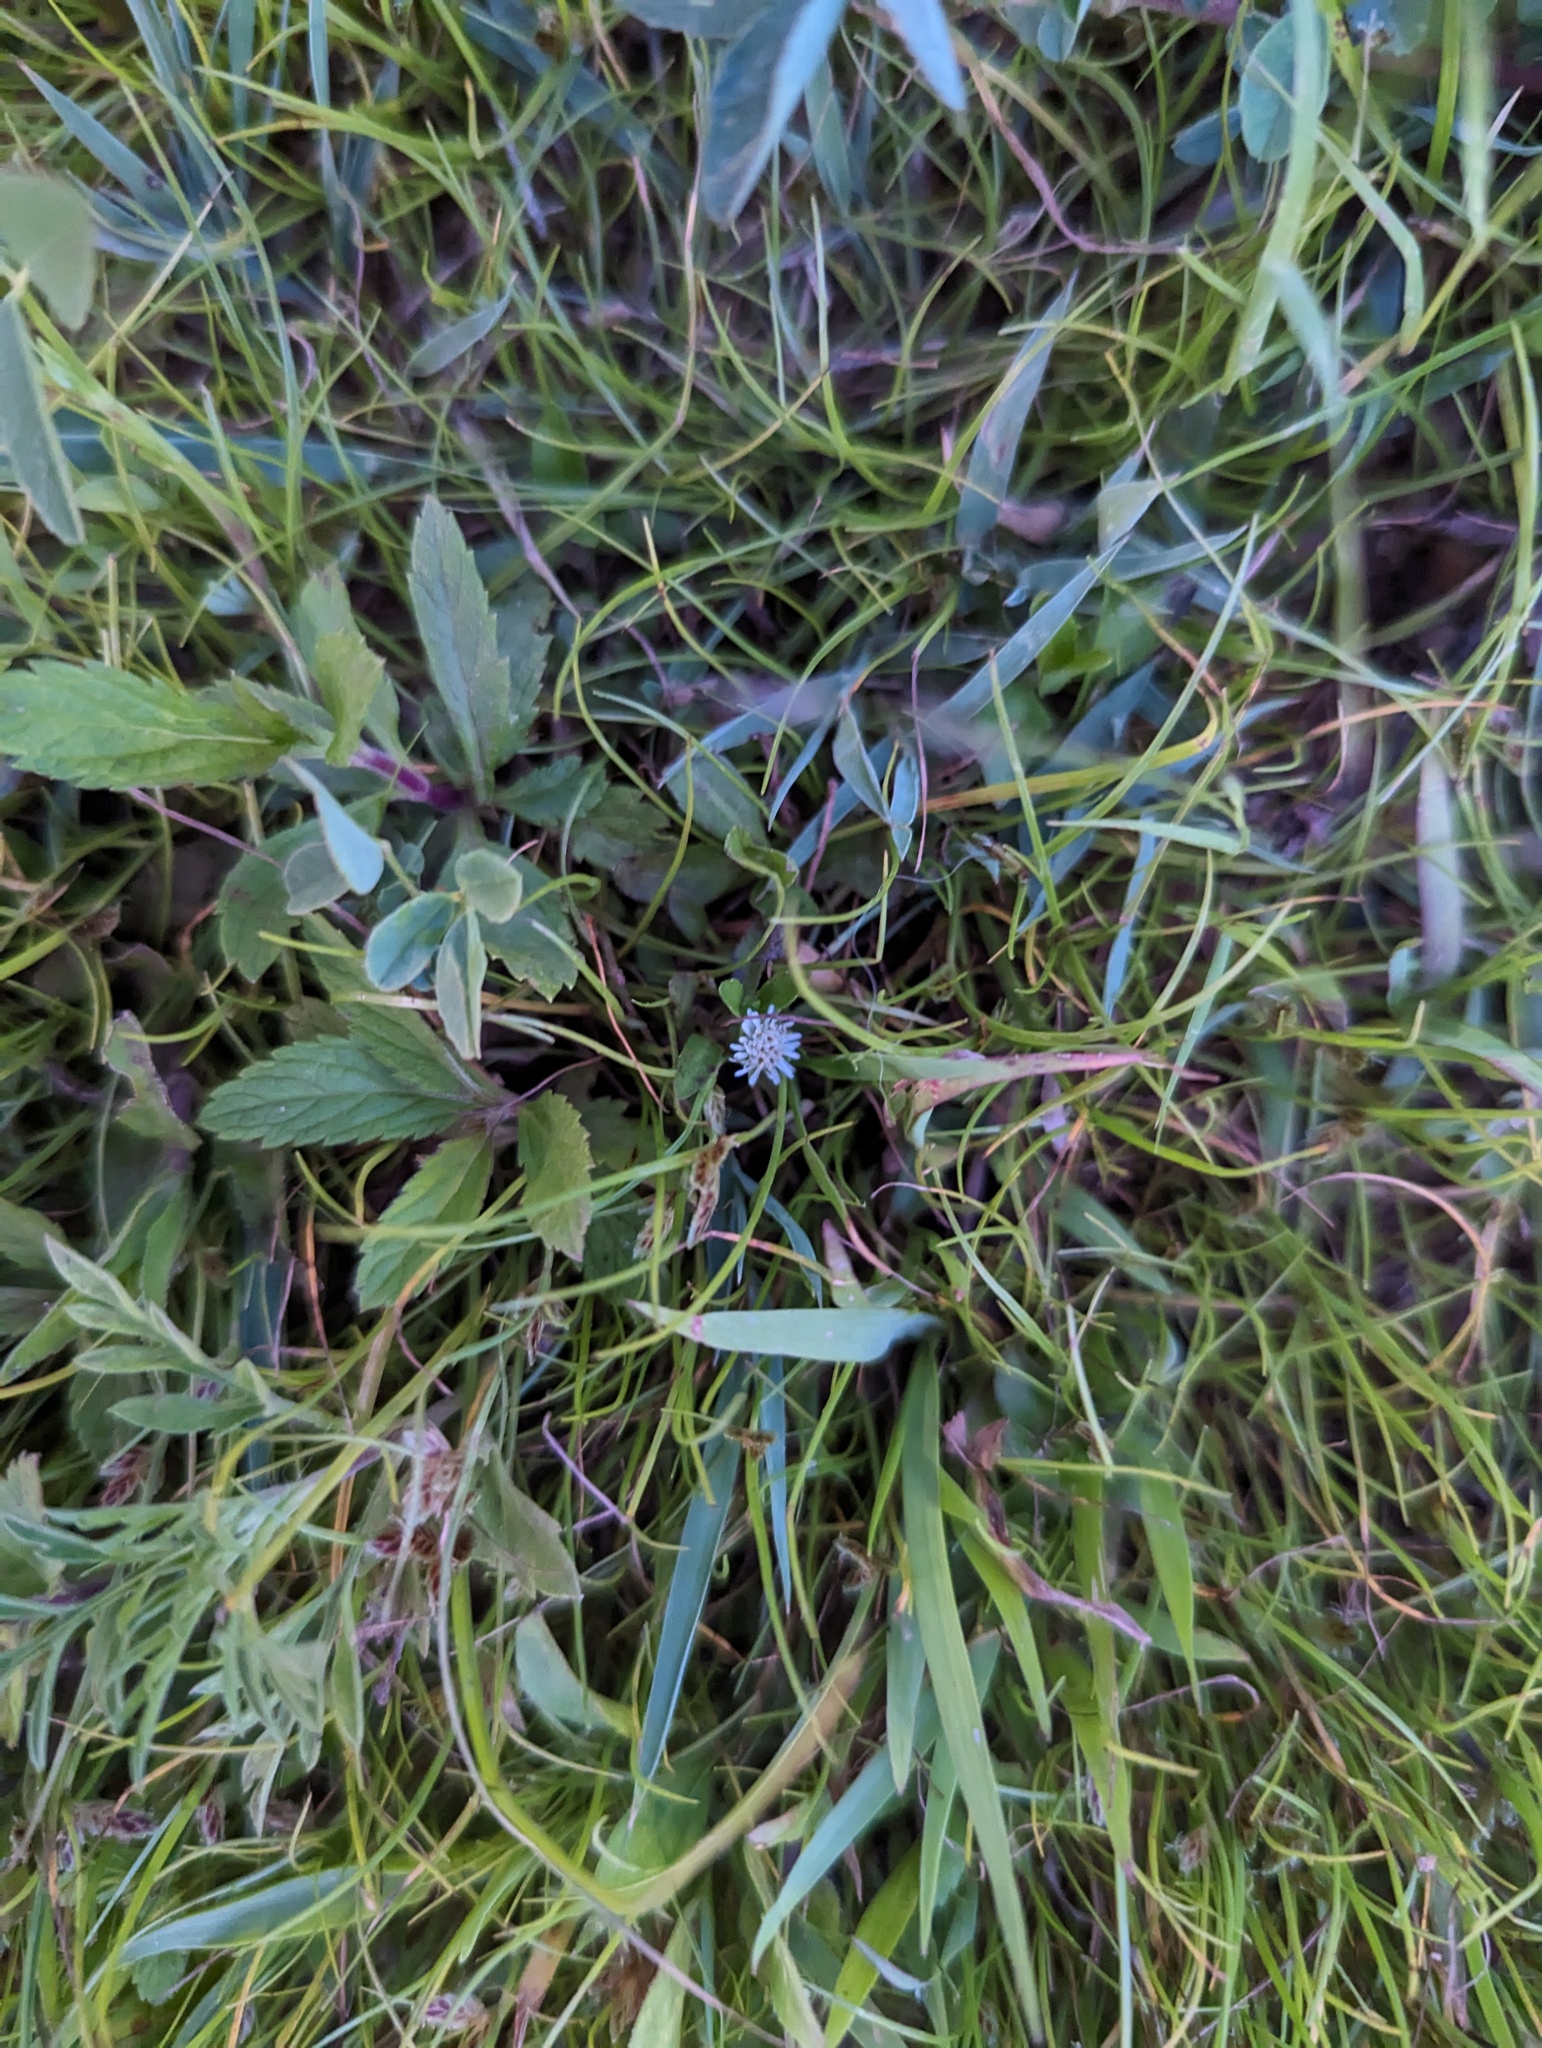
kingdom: Plantae
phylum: Tracheophyta
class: Magnoliopsida
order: Asterales
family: Asteraceae
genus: Eclipta
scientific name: Eclipta prostrata
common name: False daisy
